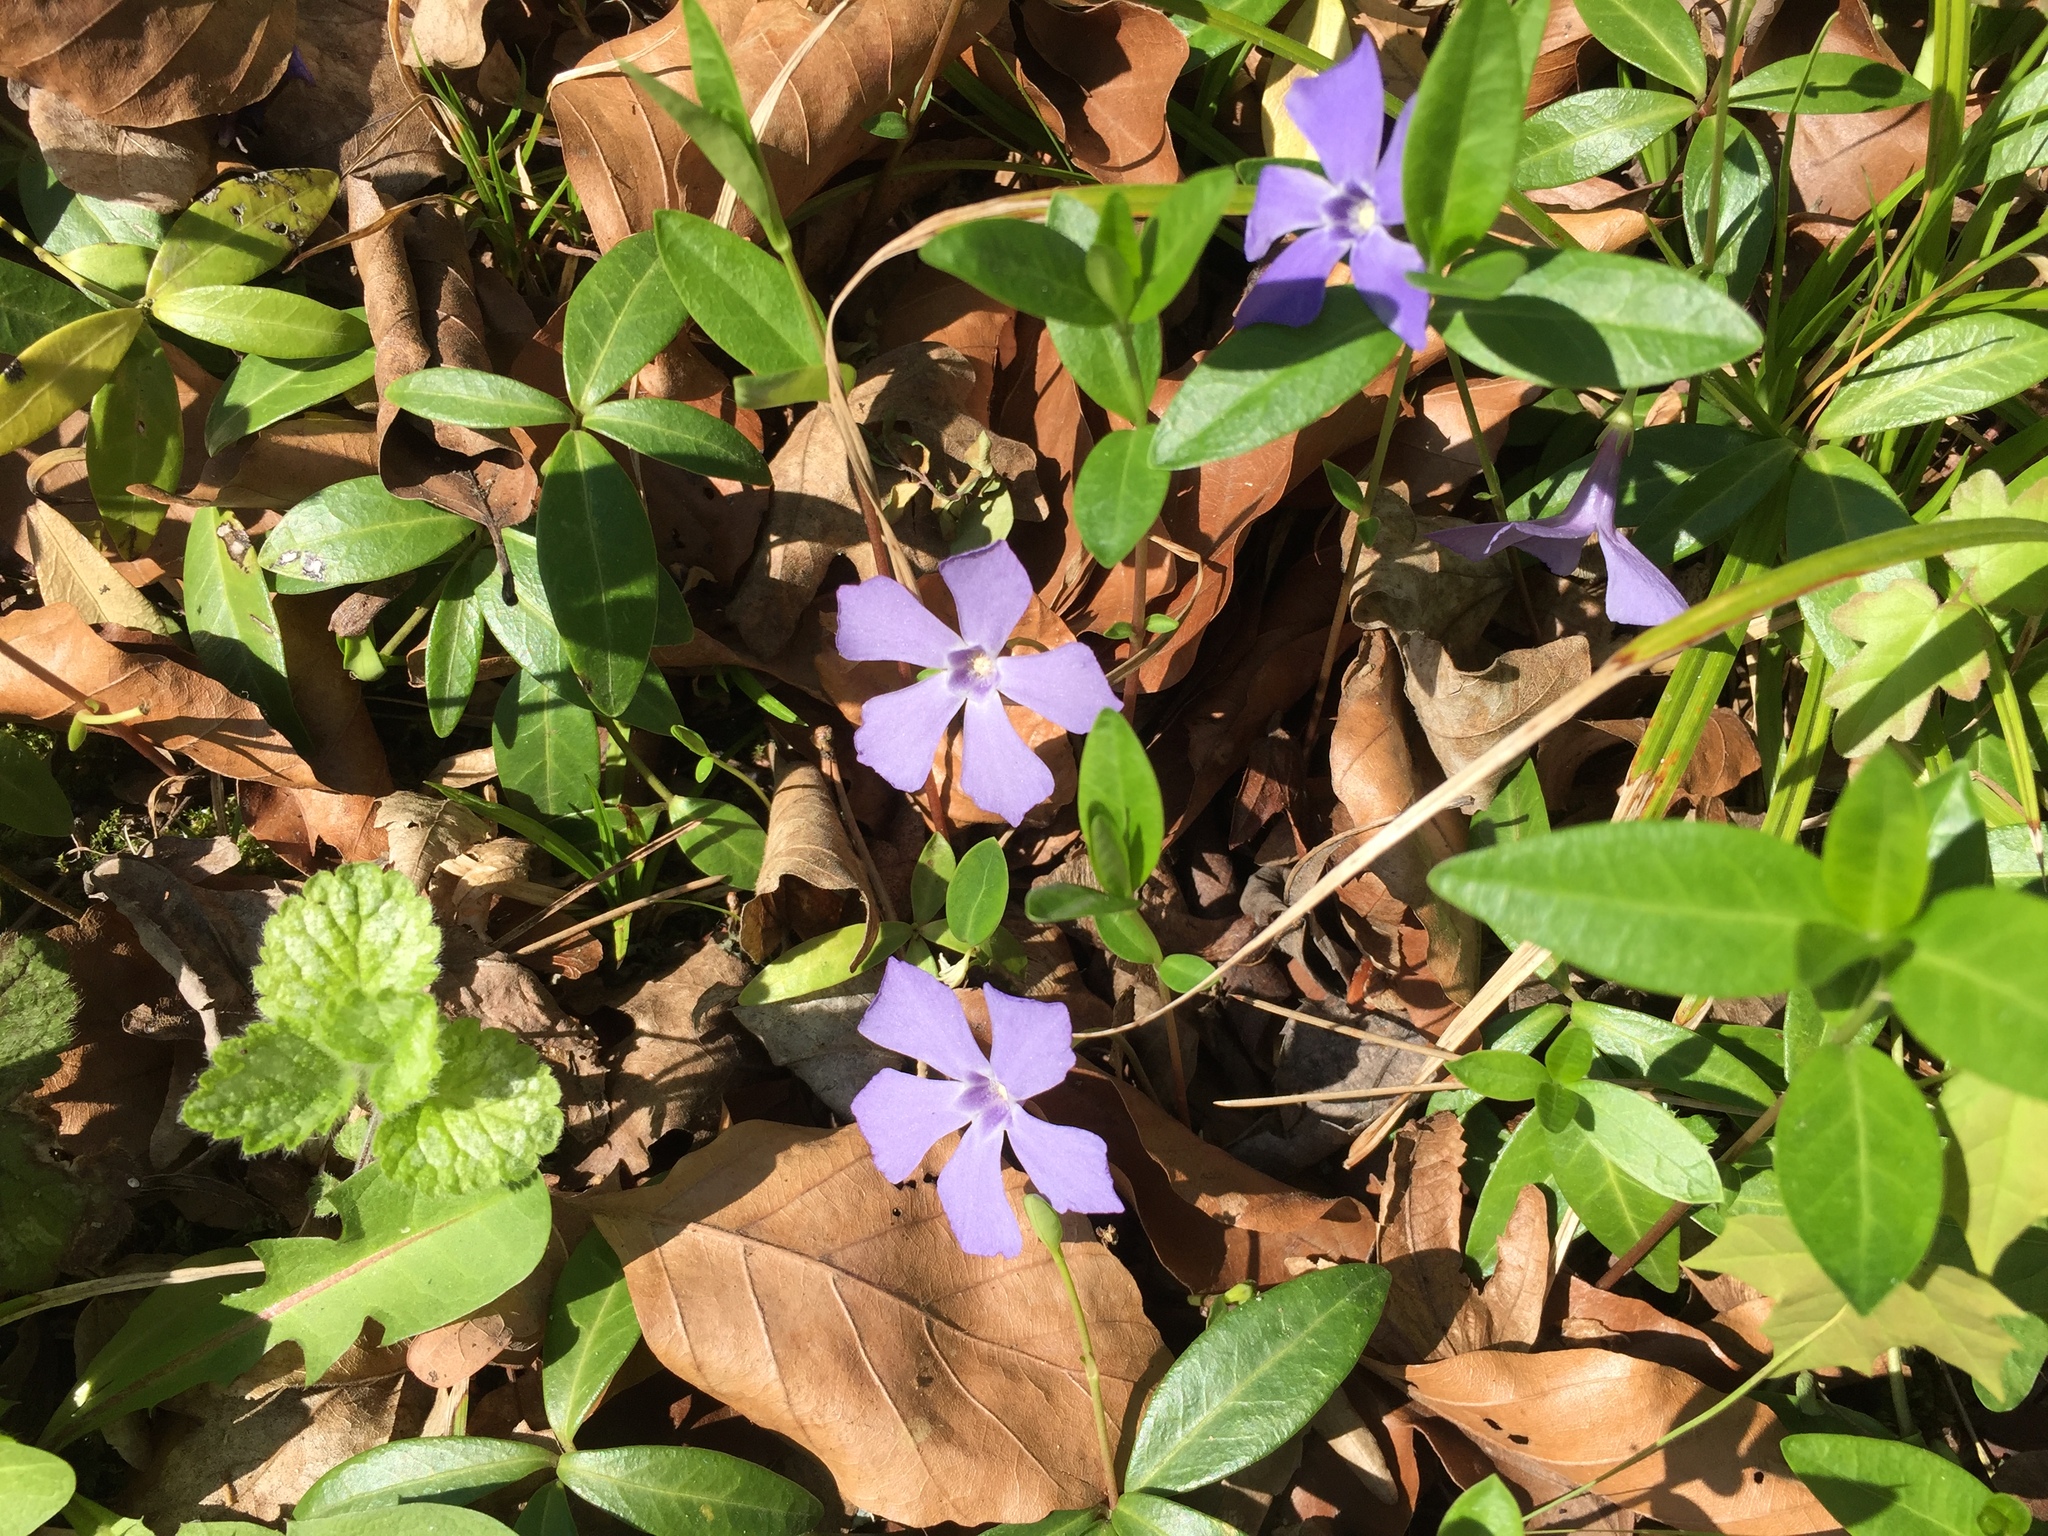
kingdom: Plantae
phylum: Tracheophyta
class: Magnoliopsida
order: Gentianales
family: Apocynaceae
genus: Vinca
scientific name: Vinca minor
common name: Lesser periwinkle
